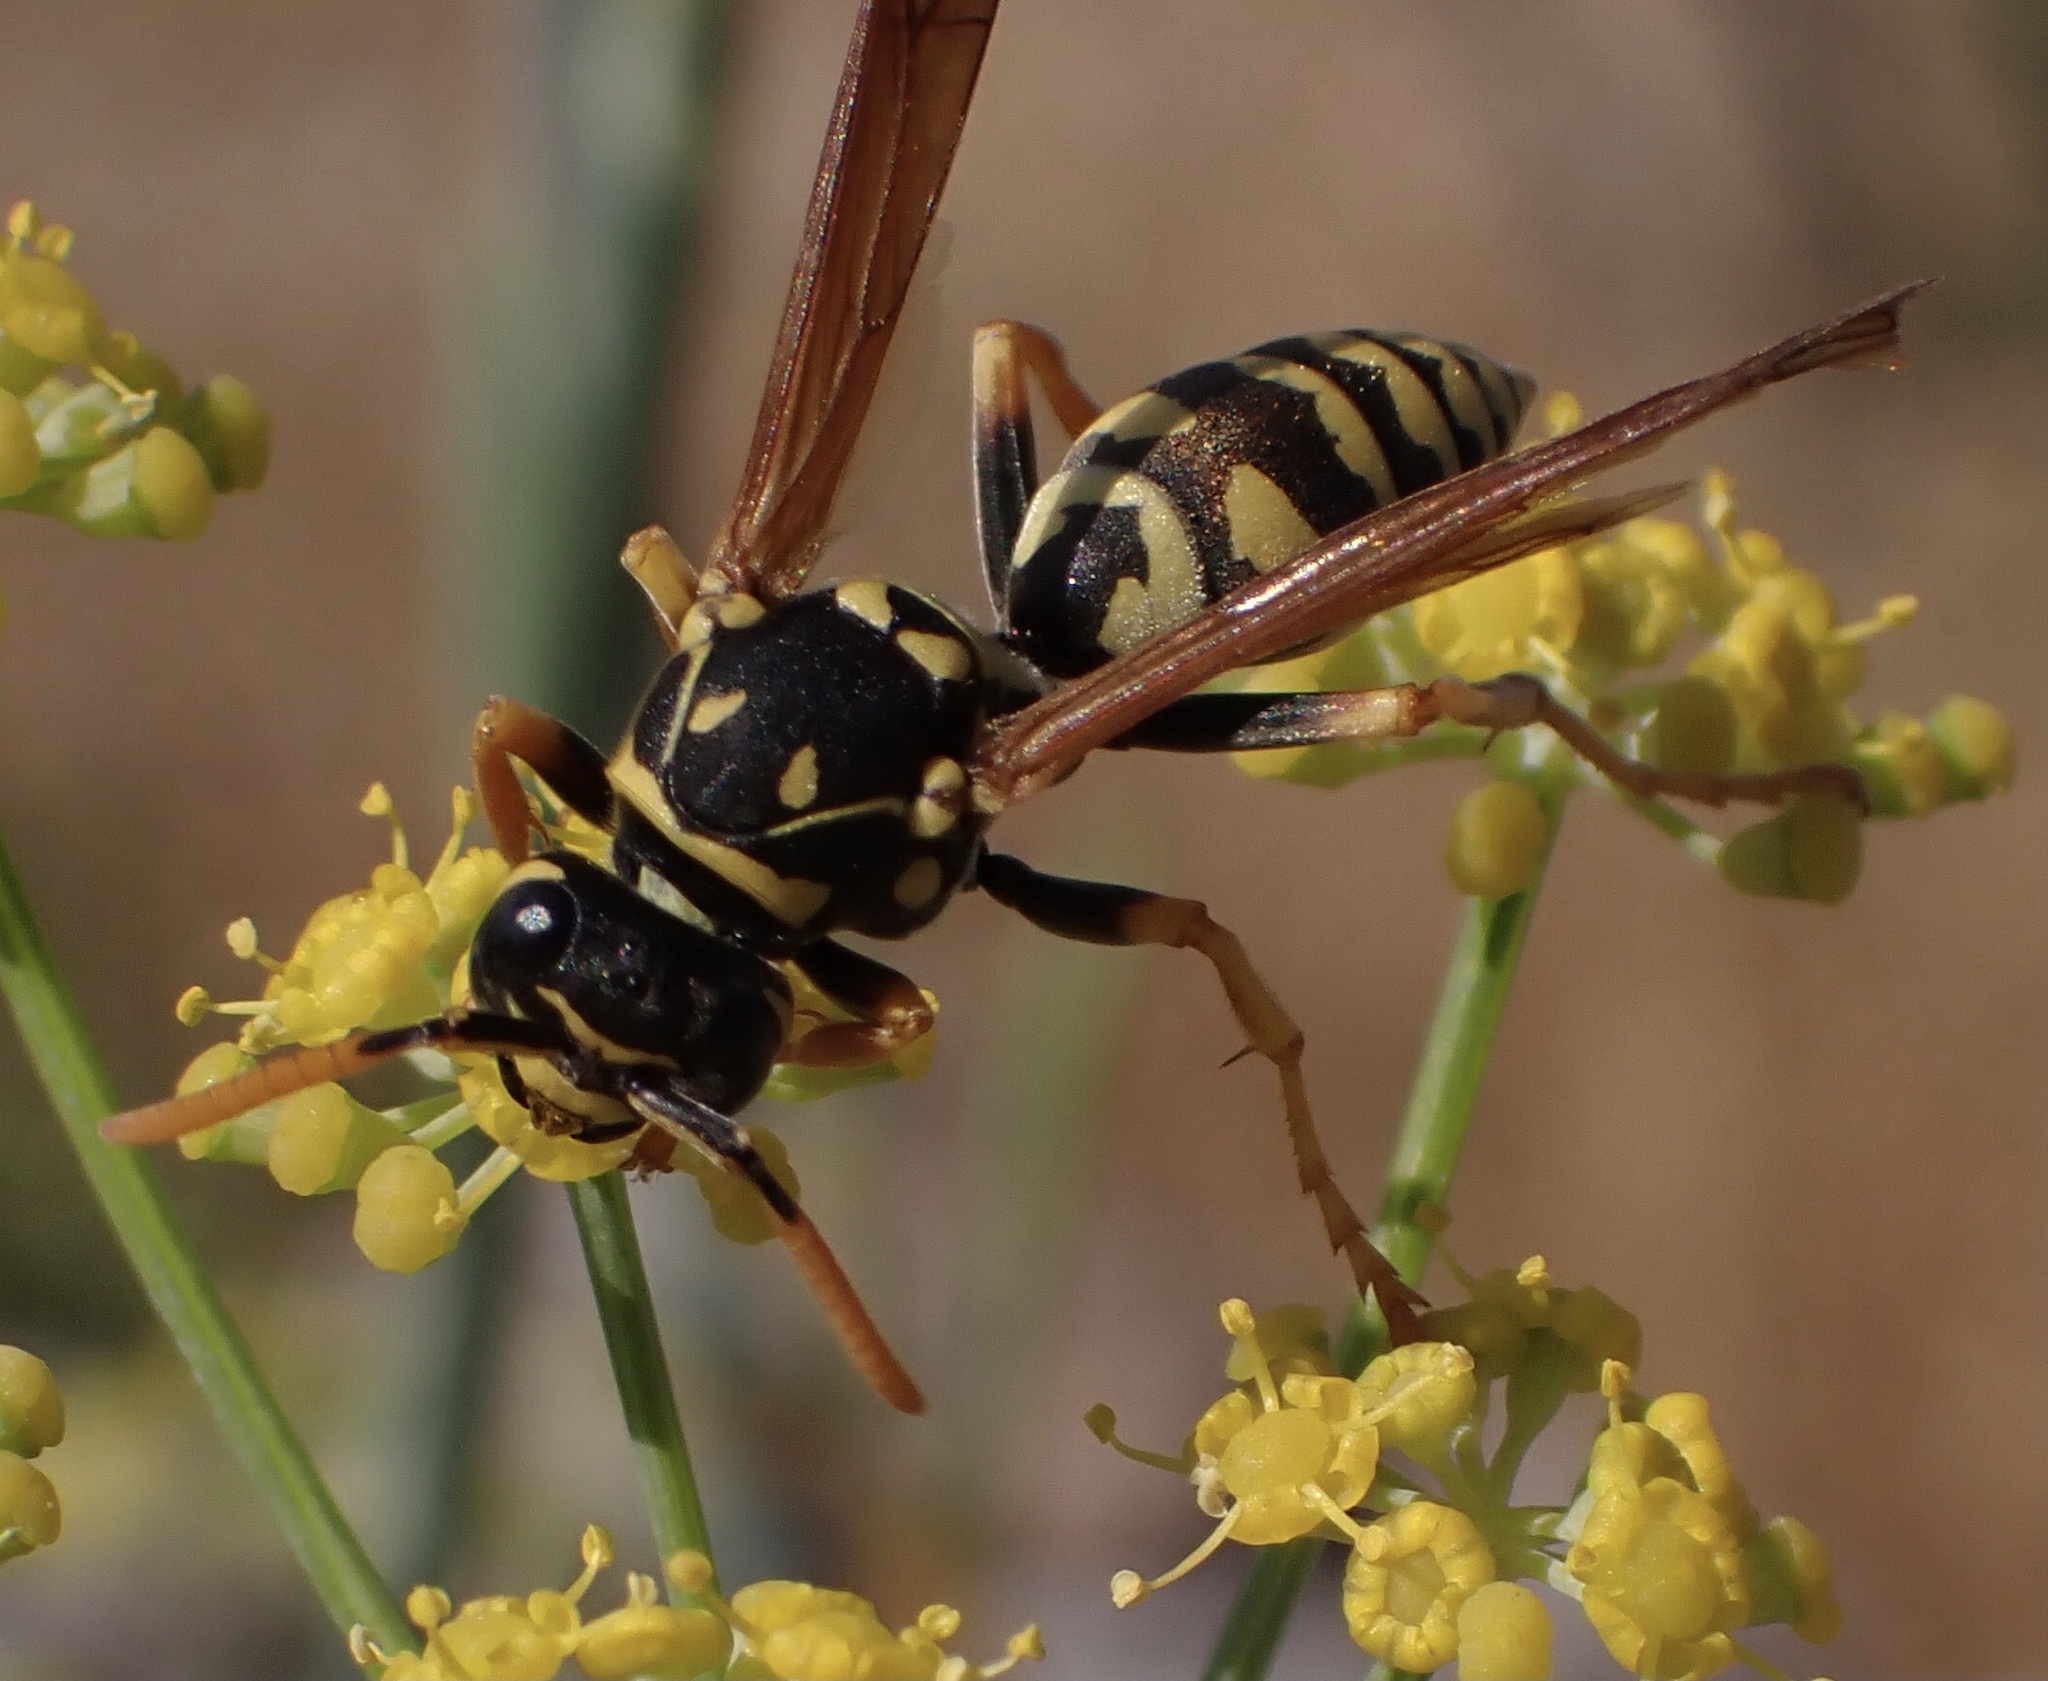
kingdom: Animalia
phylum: Arthropoda
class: Insecta
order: Hymenoptera
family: Eumenidae
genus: Polistes
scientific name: Polistes dominula
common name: Paper wasp
